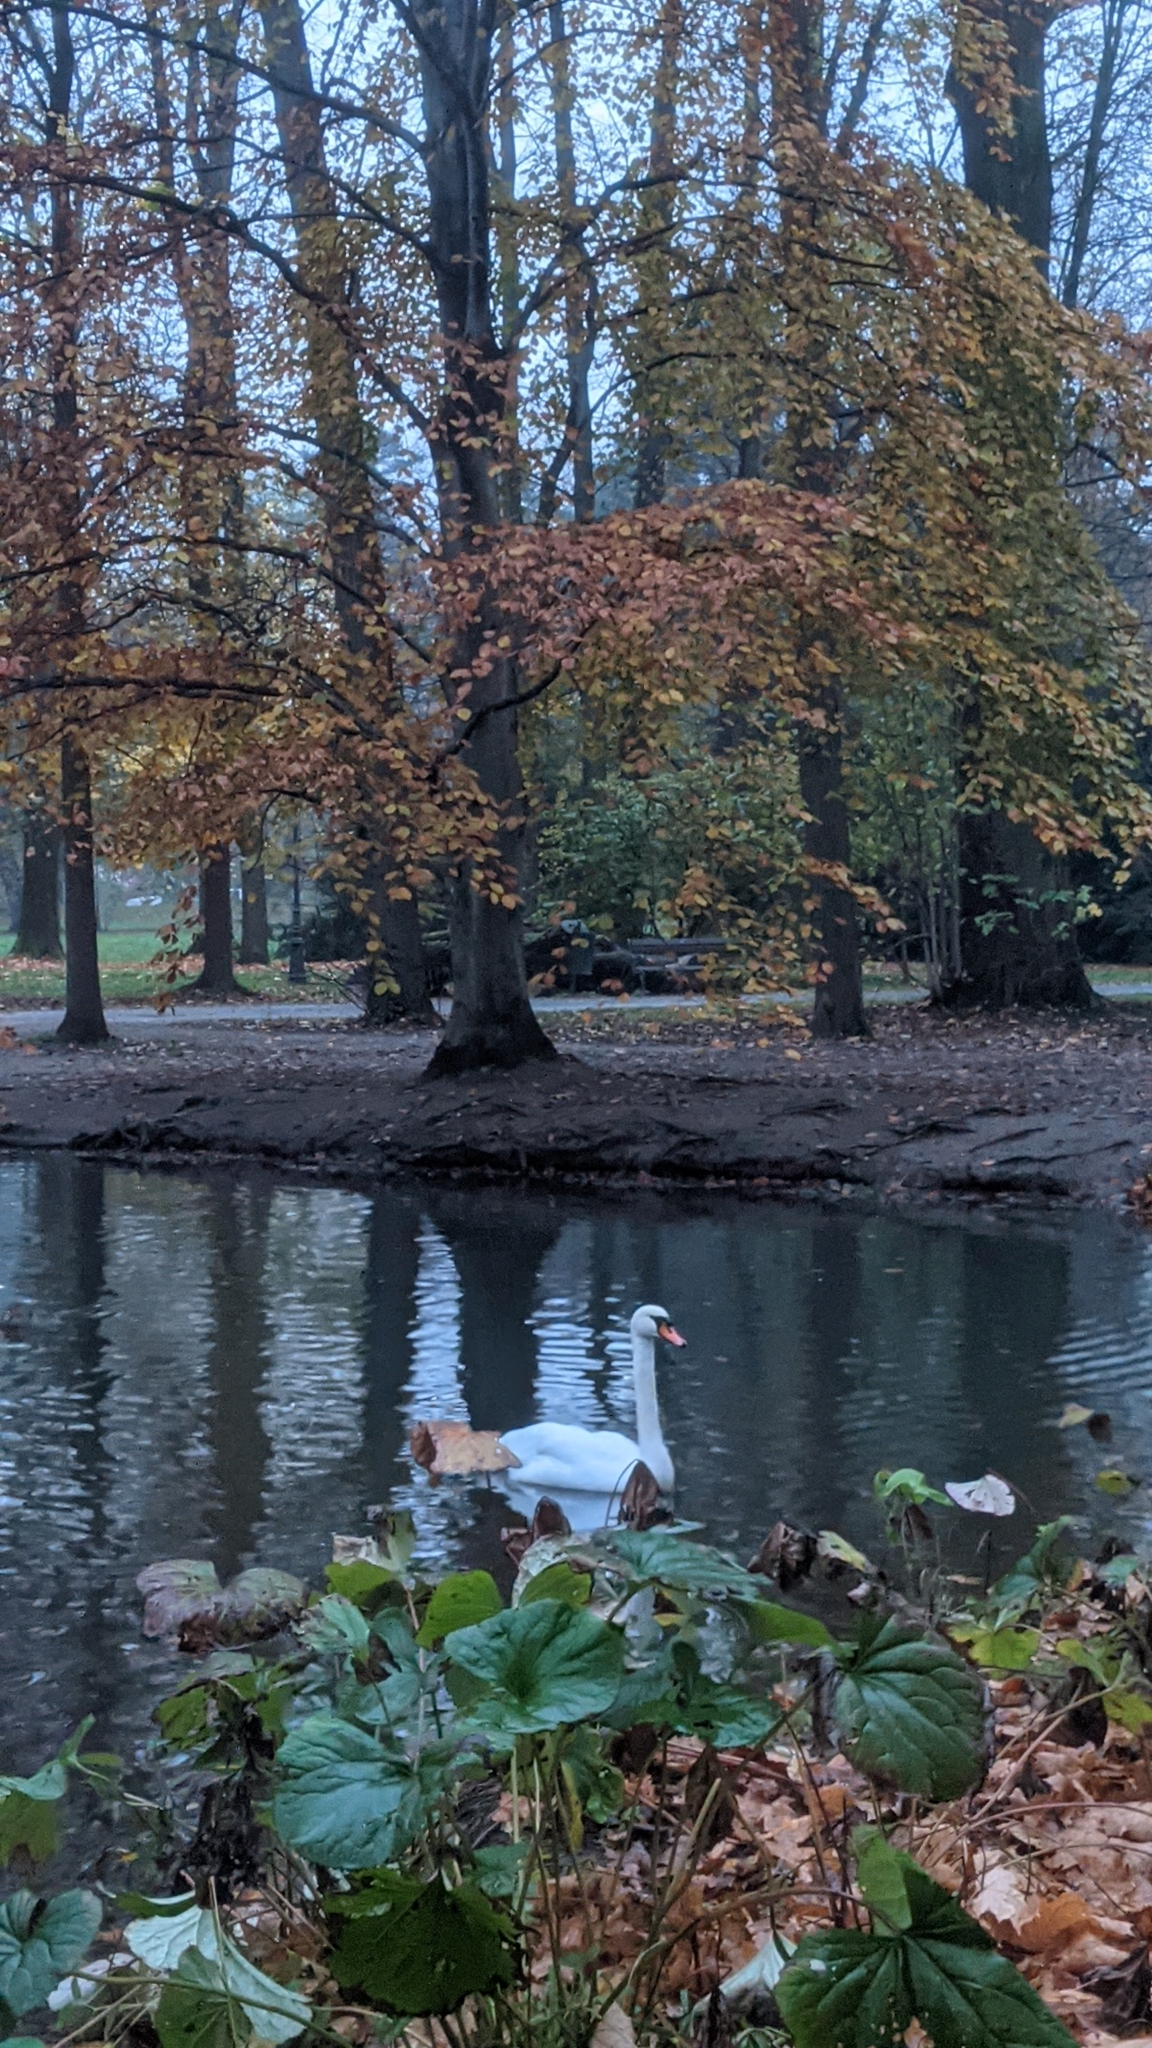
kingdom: Animalia
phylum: Chordata
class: Aves
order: Anseriformes
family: Anatidae
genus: Cygnus
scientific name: Cygnus olor
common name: Mute swan
